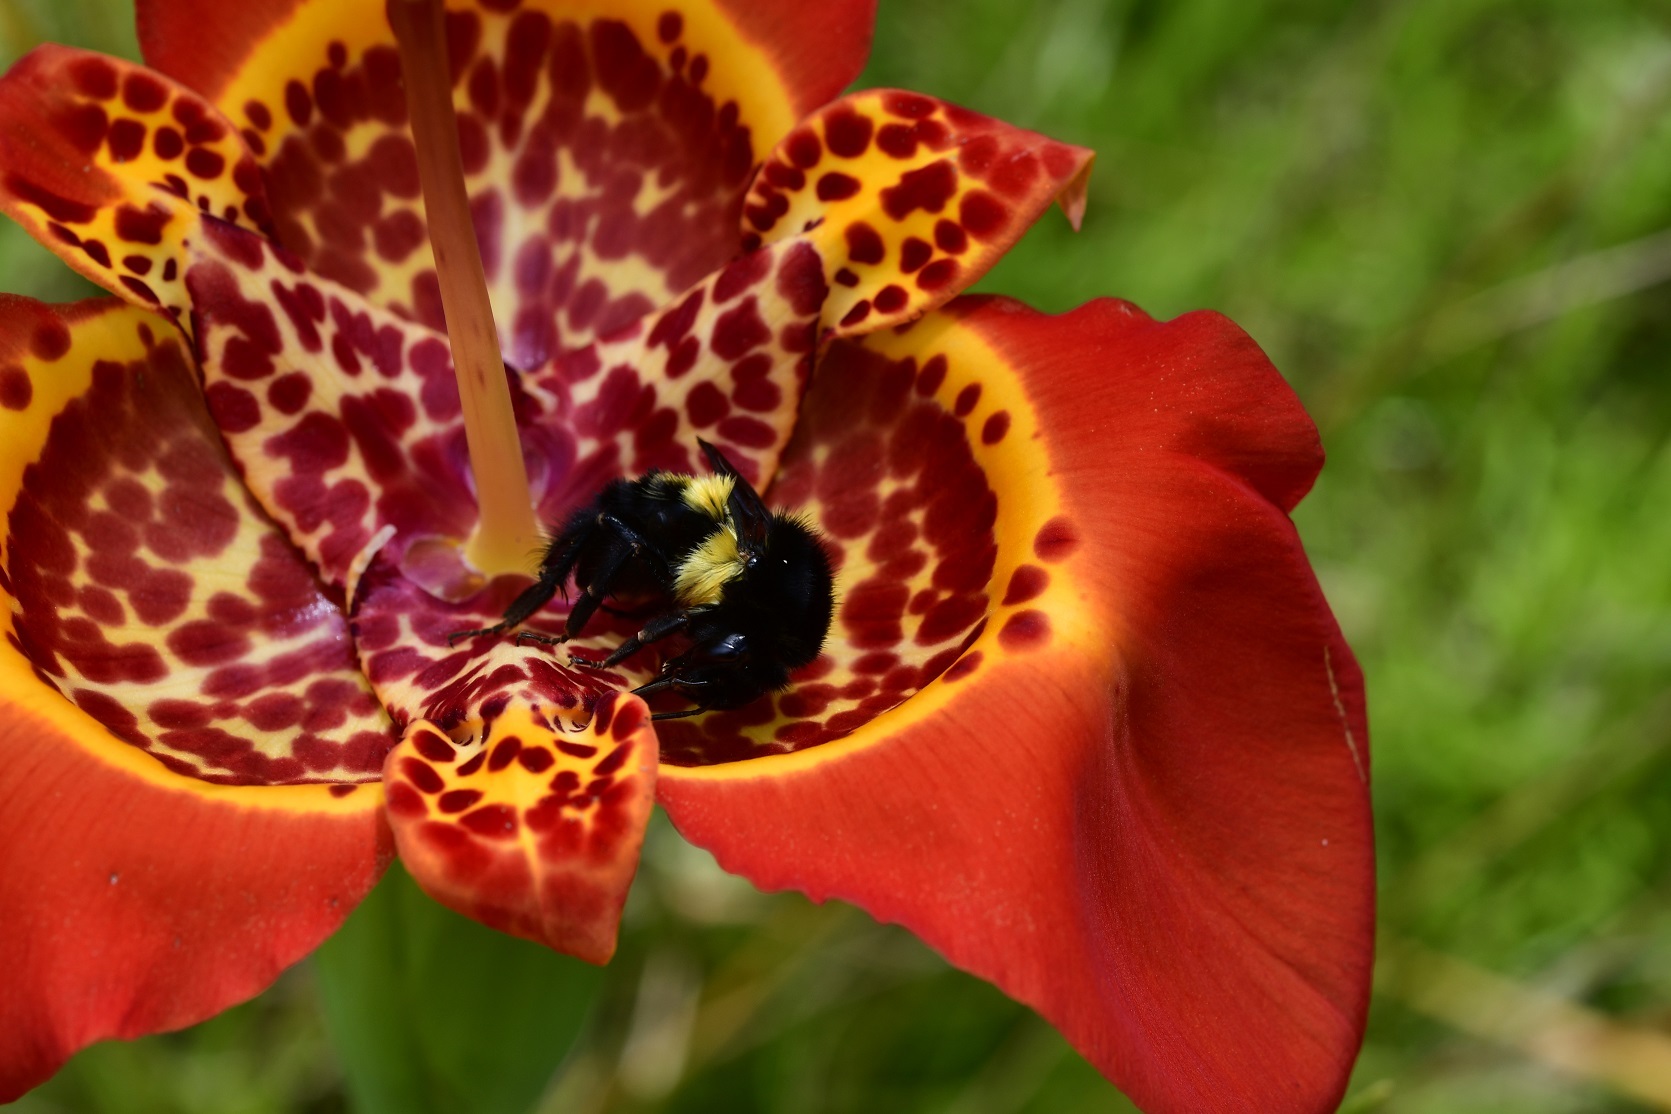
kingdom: Animalia
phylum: Arthropoda
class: Insecta
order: Hymenoptera
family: Apidae
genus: Bombus
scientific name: Bombus ephippiatus
